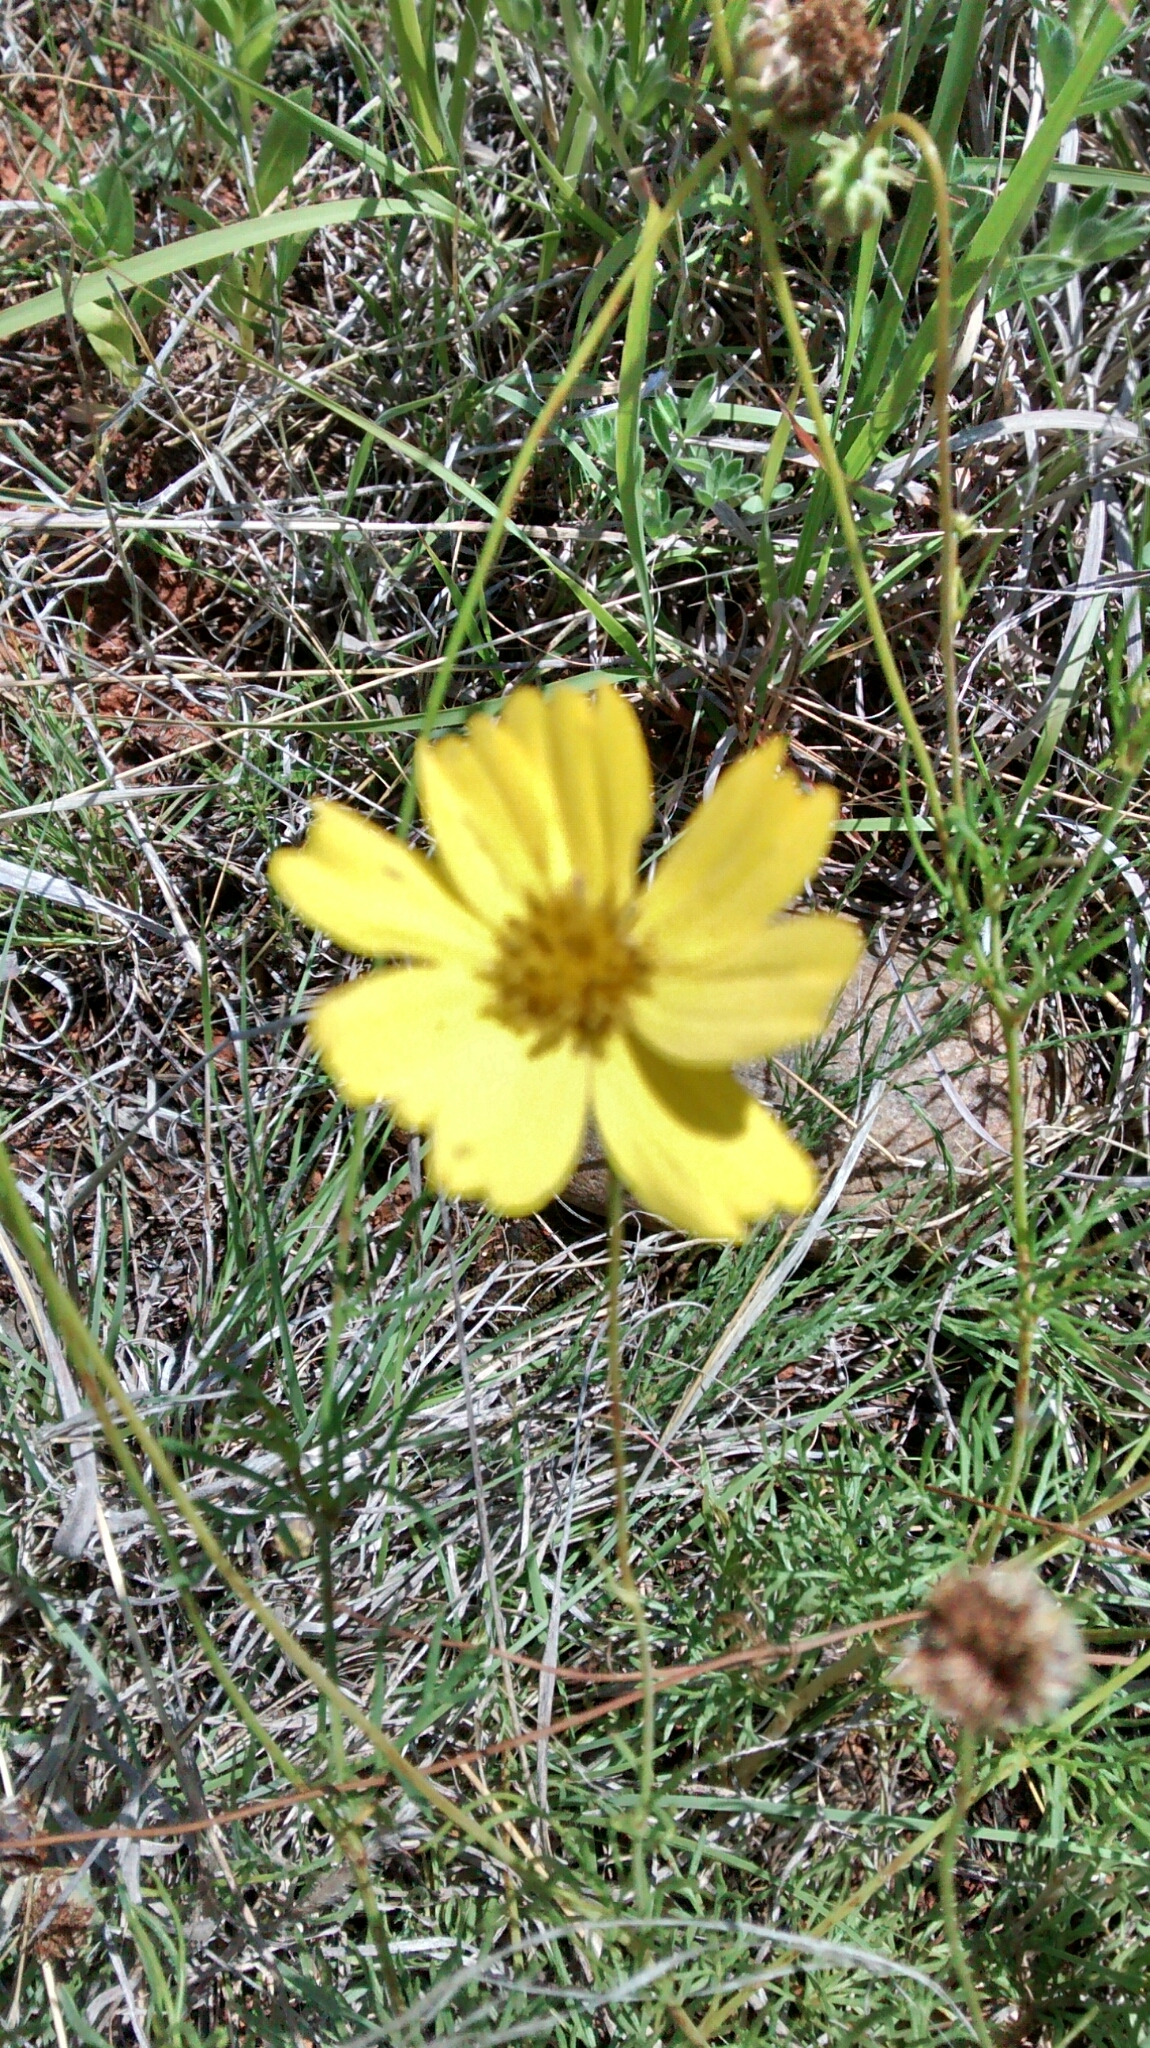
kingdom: Plantae
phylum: Tracheophyta
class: Magnoliopsida
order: Asterales
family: Asteraceae
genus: Thelesperma
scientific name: Thelesperma filifolium
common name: Stiff greenthread
